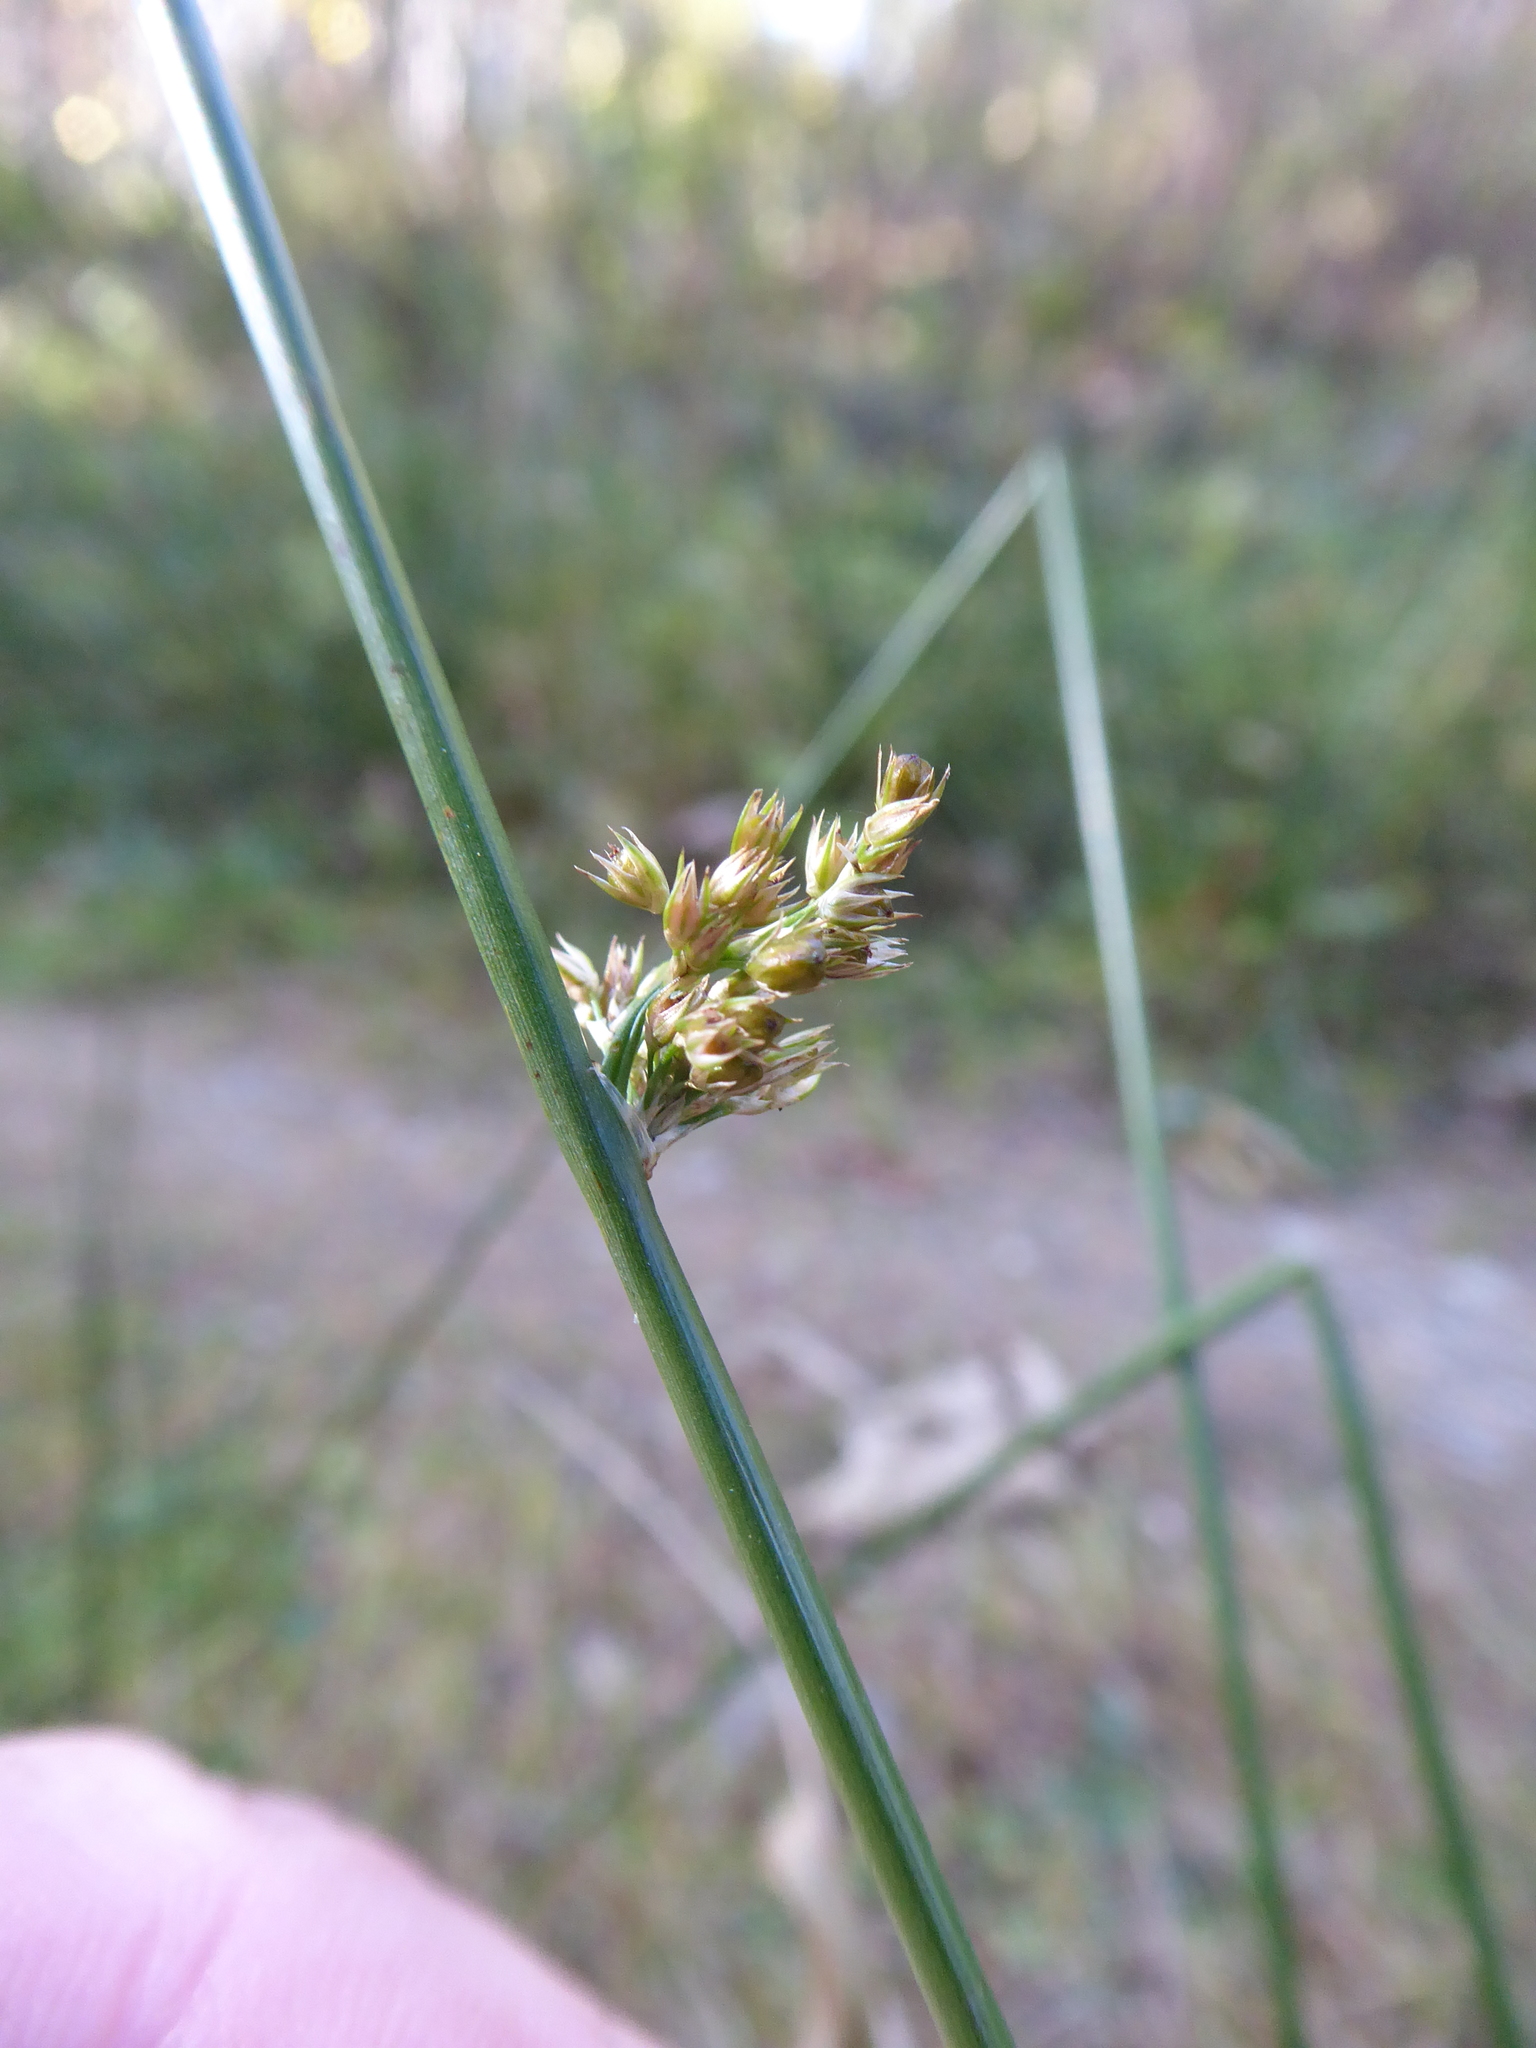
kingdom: Plantae
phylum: Tracheophyta
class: Liliopsida
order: Poales
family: Juncaceae
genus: Juncus
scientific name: Juncus effusus
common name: Soft rush
